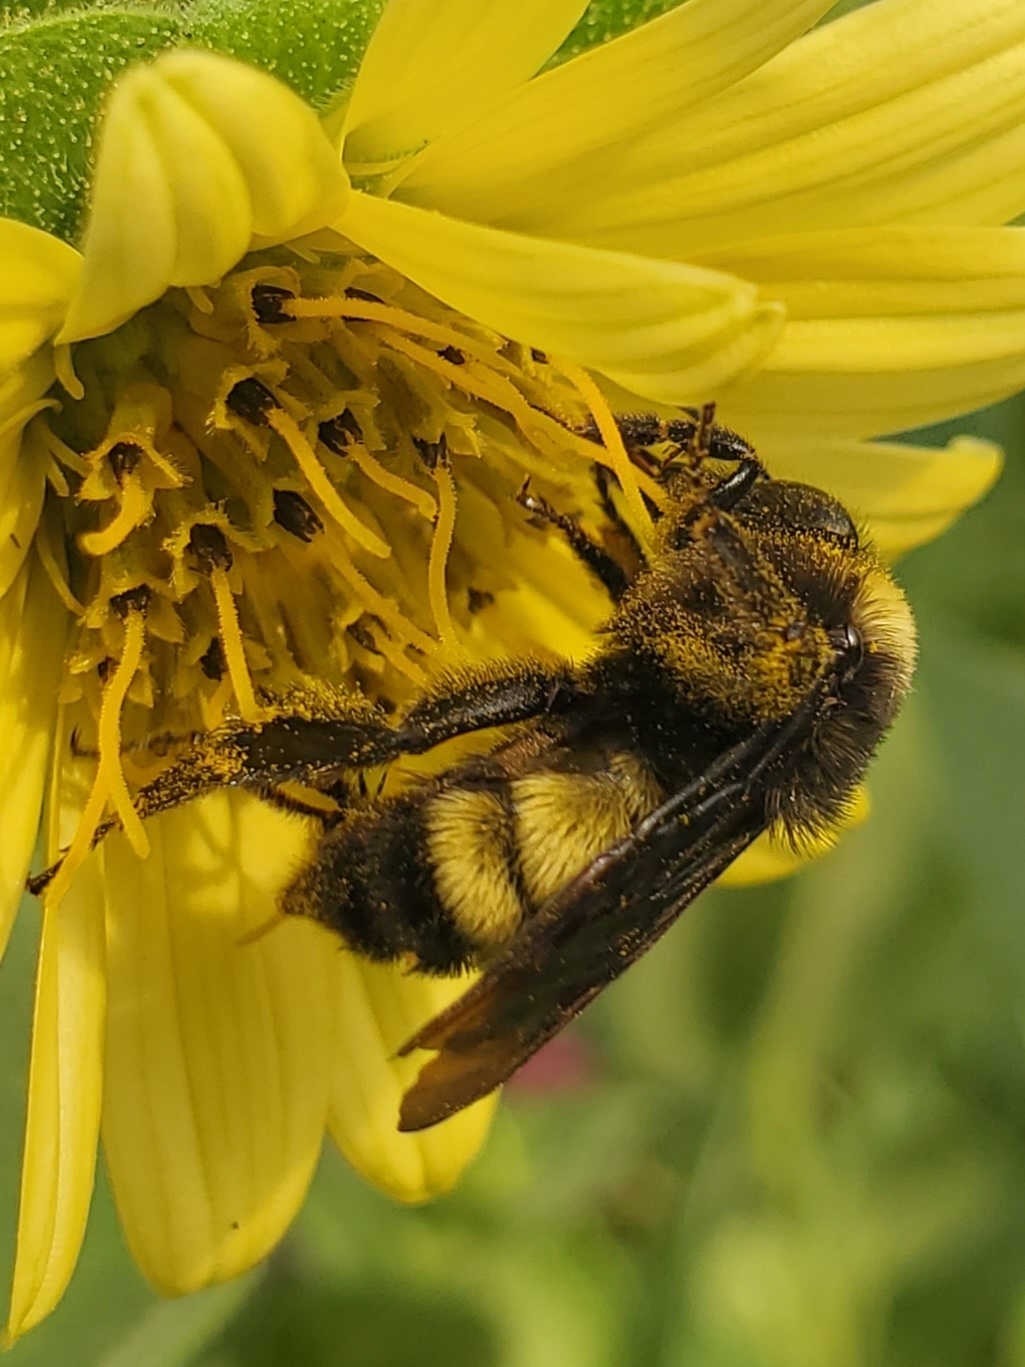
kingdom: Animalia
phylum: Arthropoda
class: Insecta
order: Hymenoptera
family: Apidae
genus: Bombus
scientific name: Bombus pensylvanicus
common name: Bumble bee
